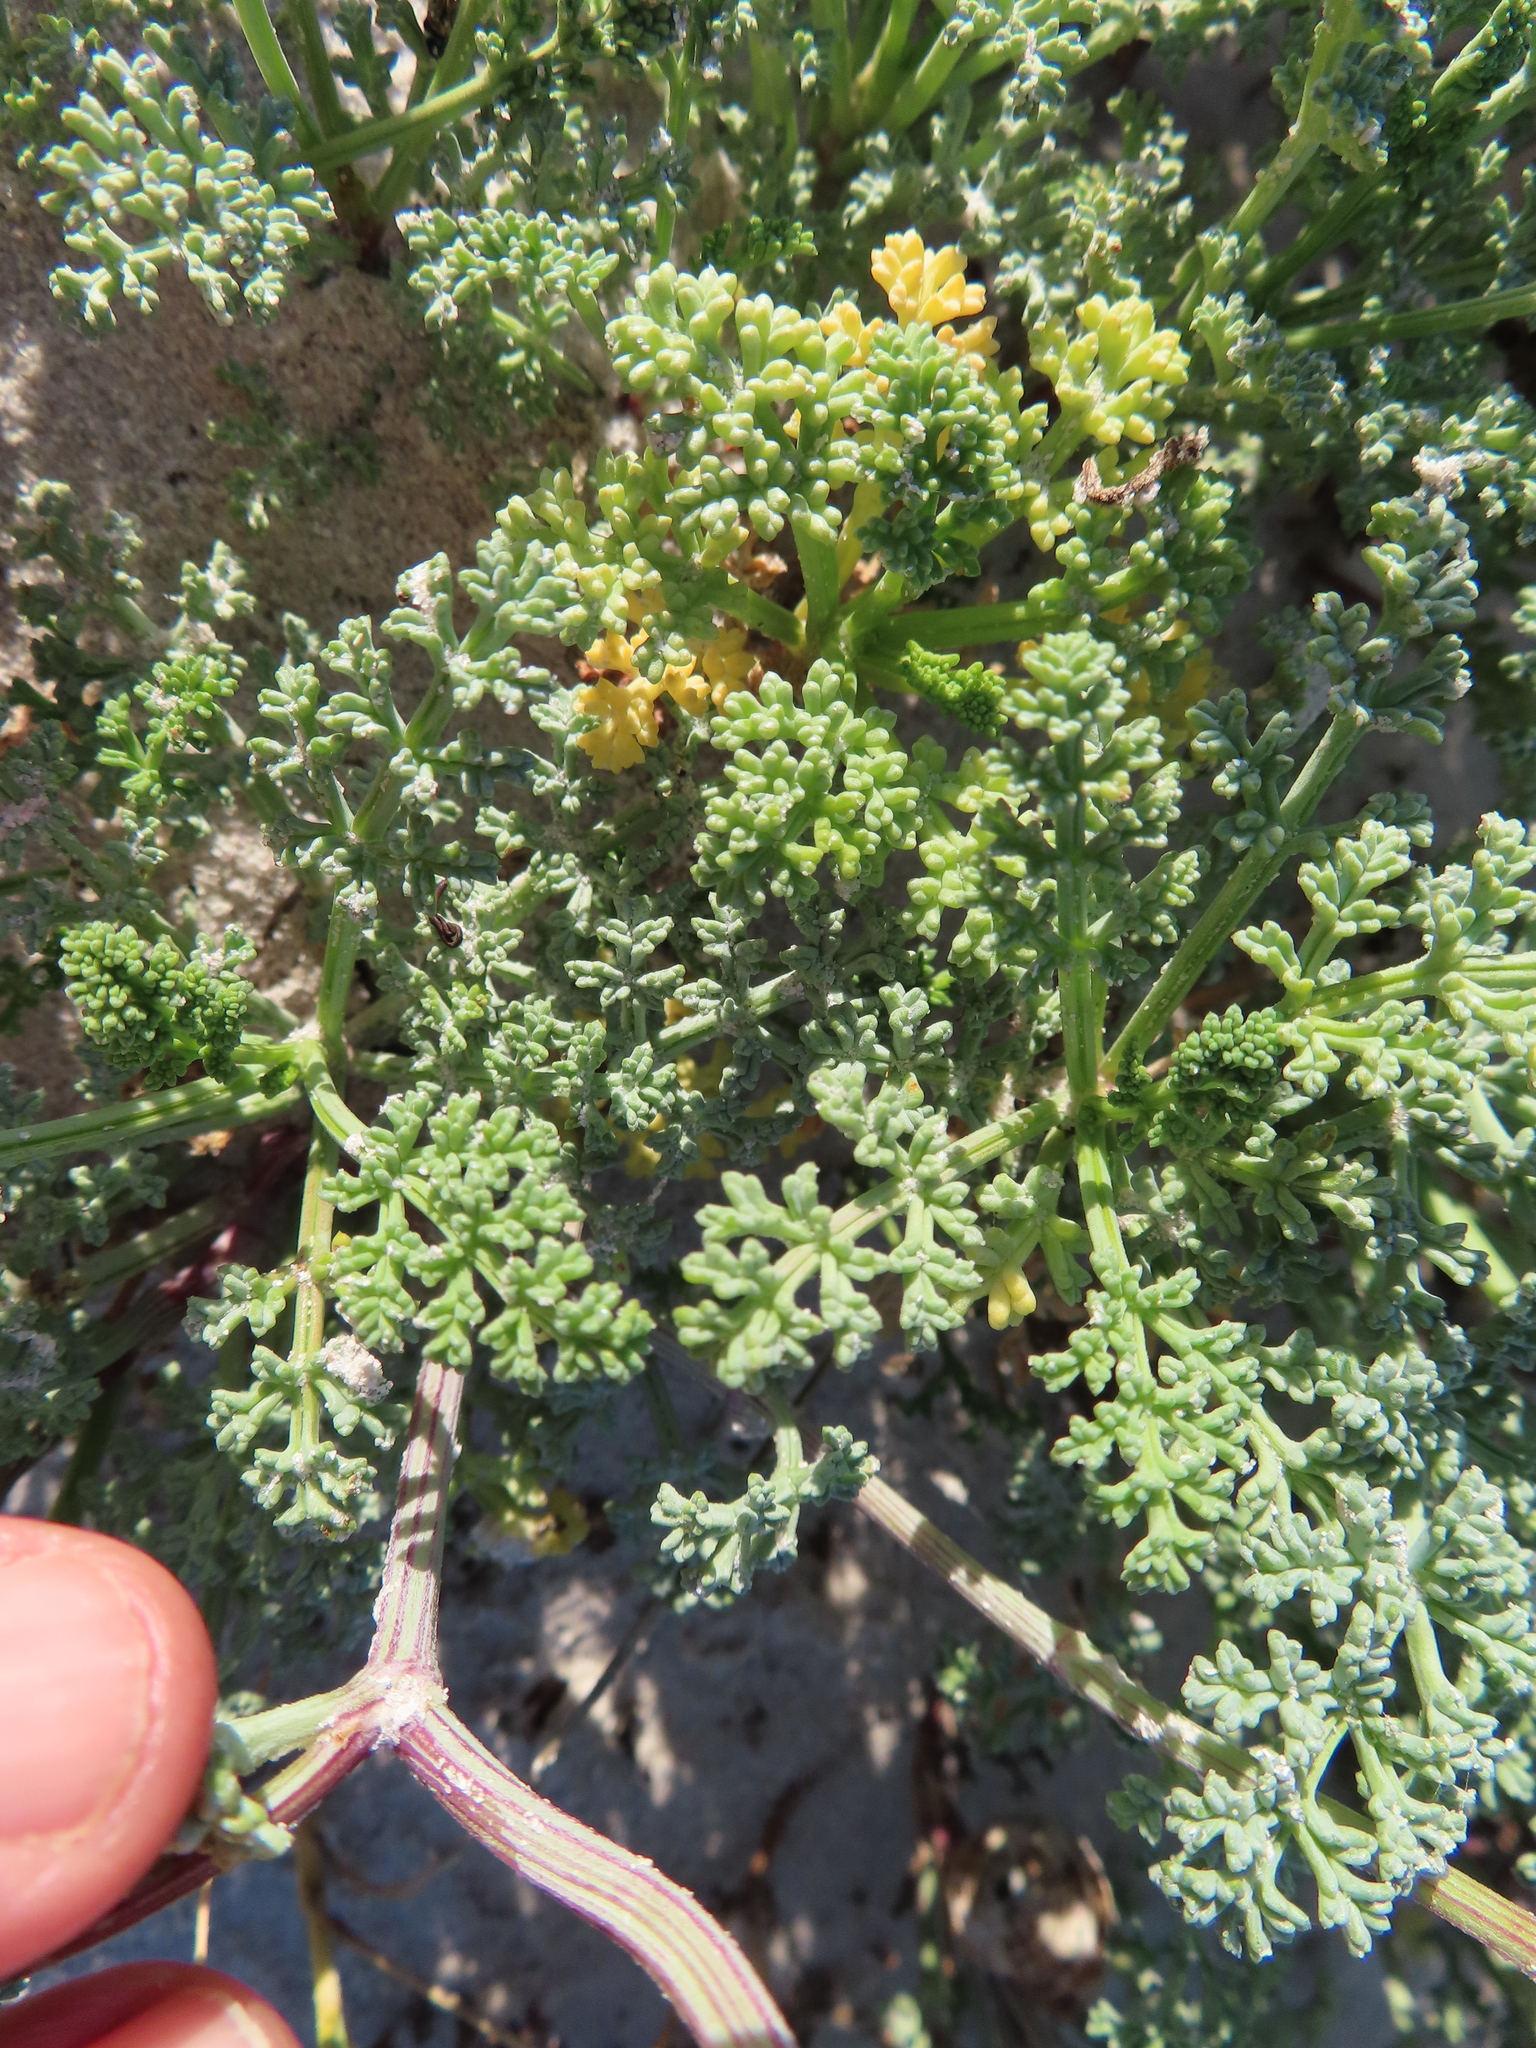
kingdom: Plantae
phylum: Tracheophyta
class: Magnoliopsida
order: Apiales
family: Apiaceae
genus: Dasispermum
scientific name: Dasispermum suffruticosum
